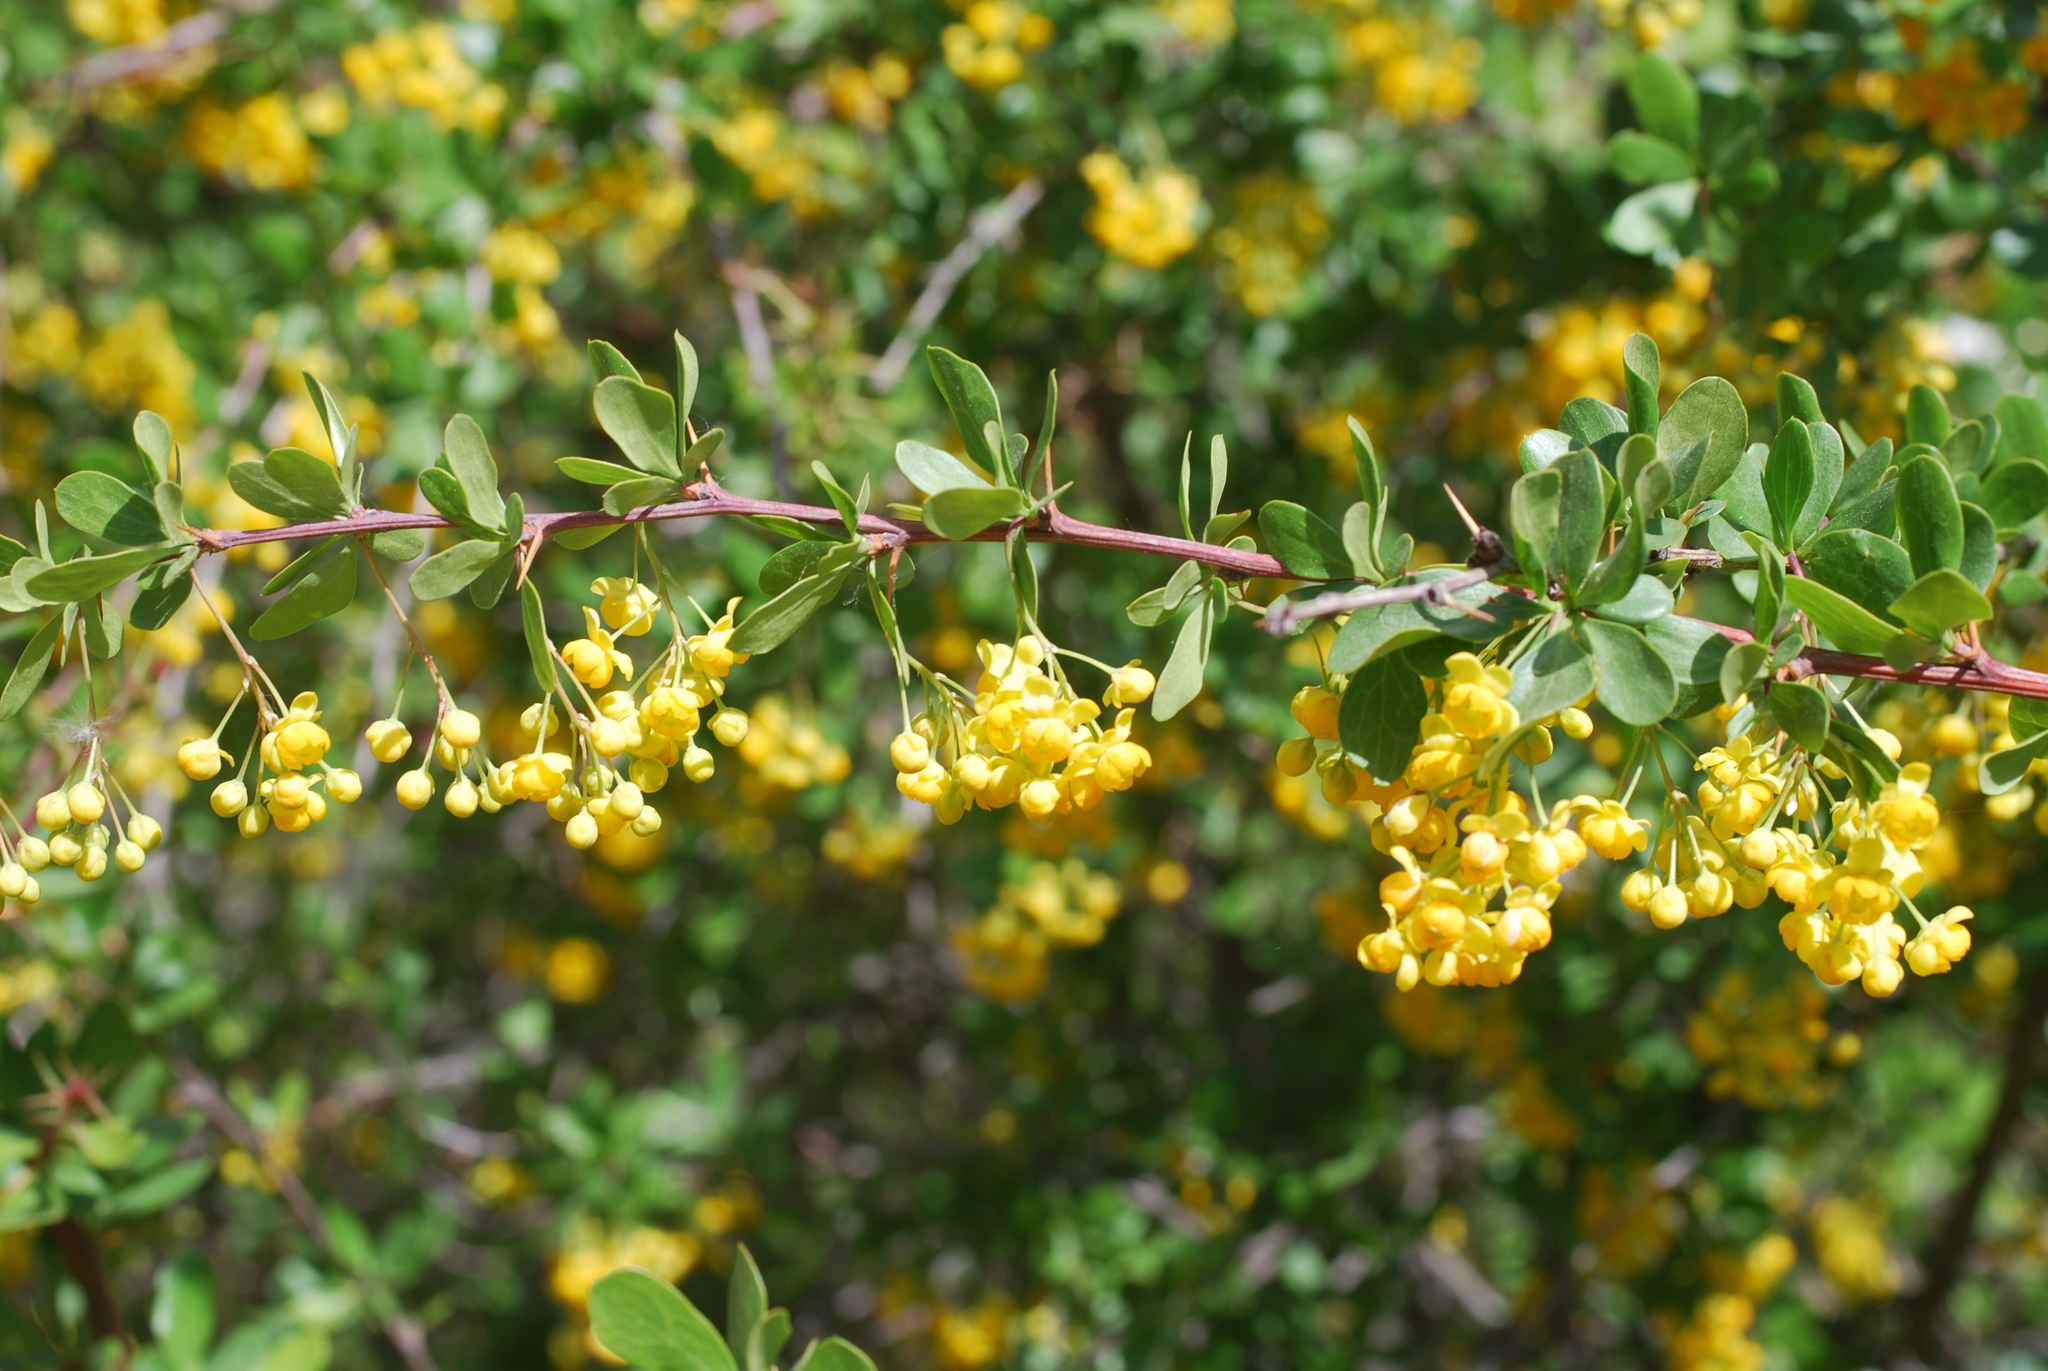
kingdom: Plantae
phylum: Tracheophyta
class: Magnoliopsida
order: Ranunculales
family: Berberidaceae
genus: Berberis
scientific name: Berberis hispanica
